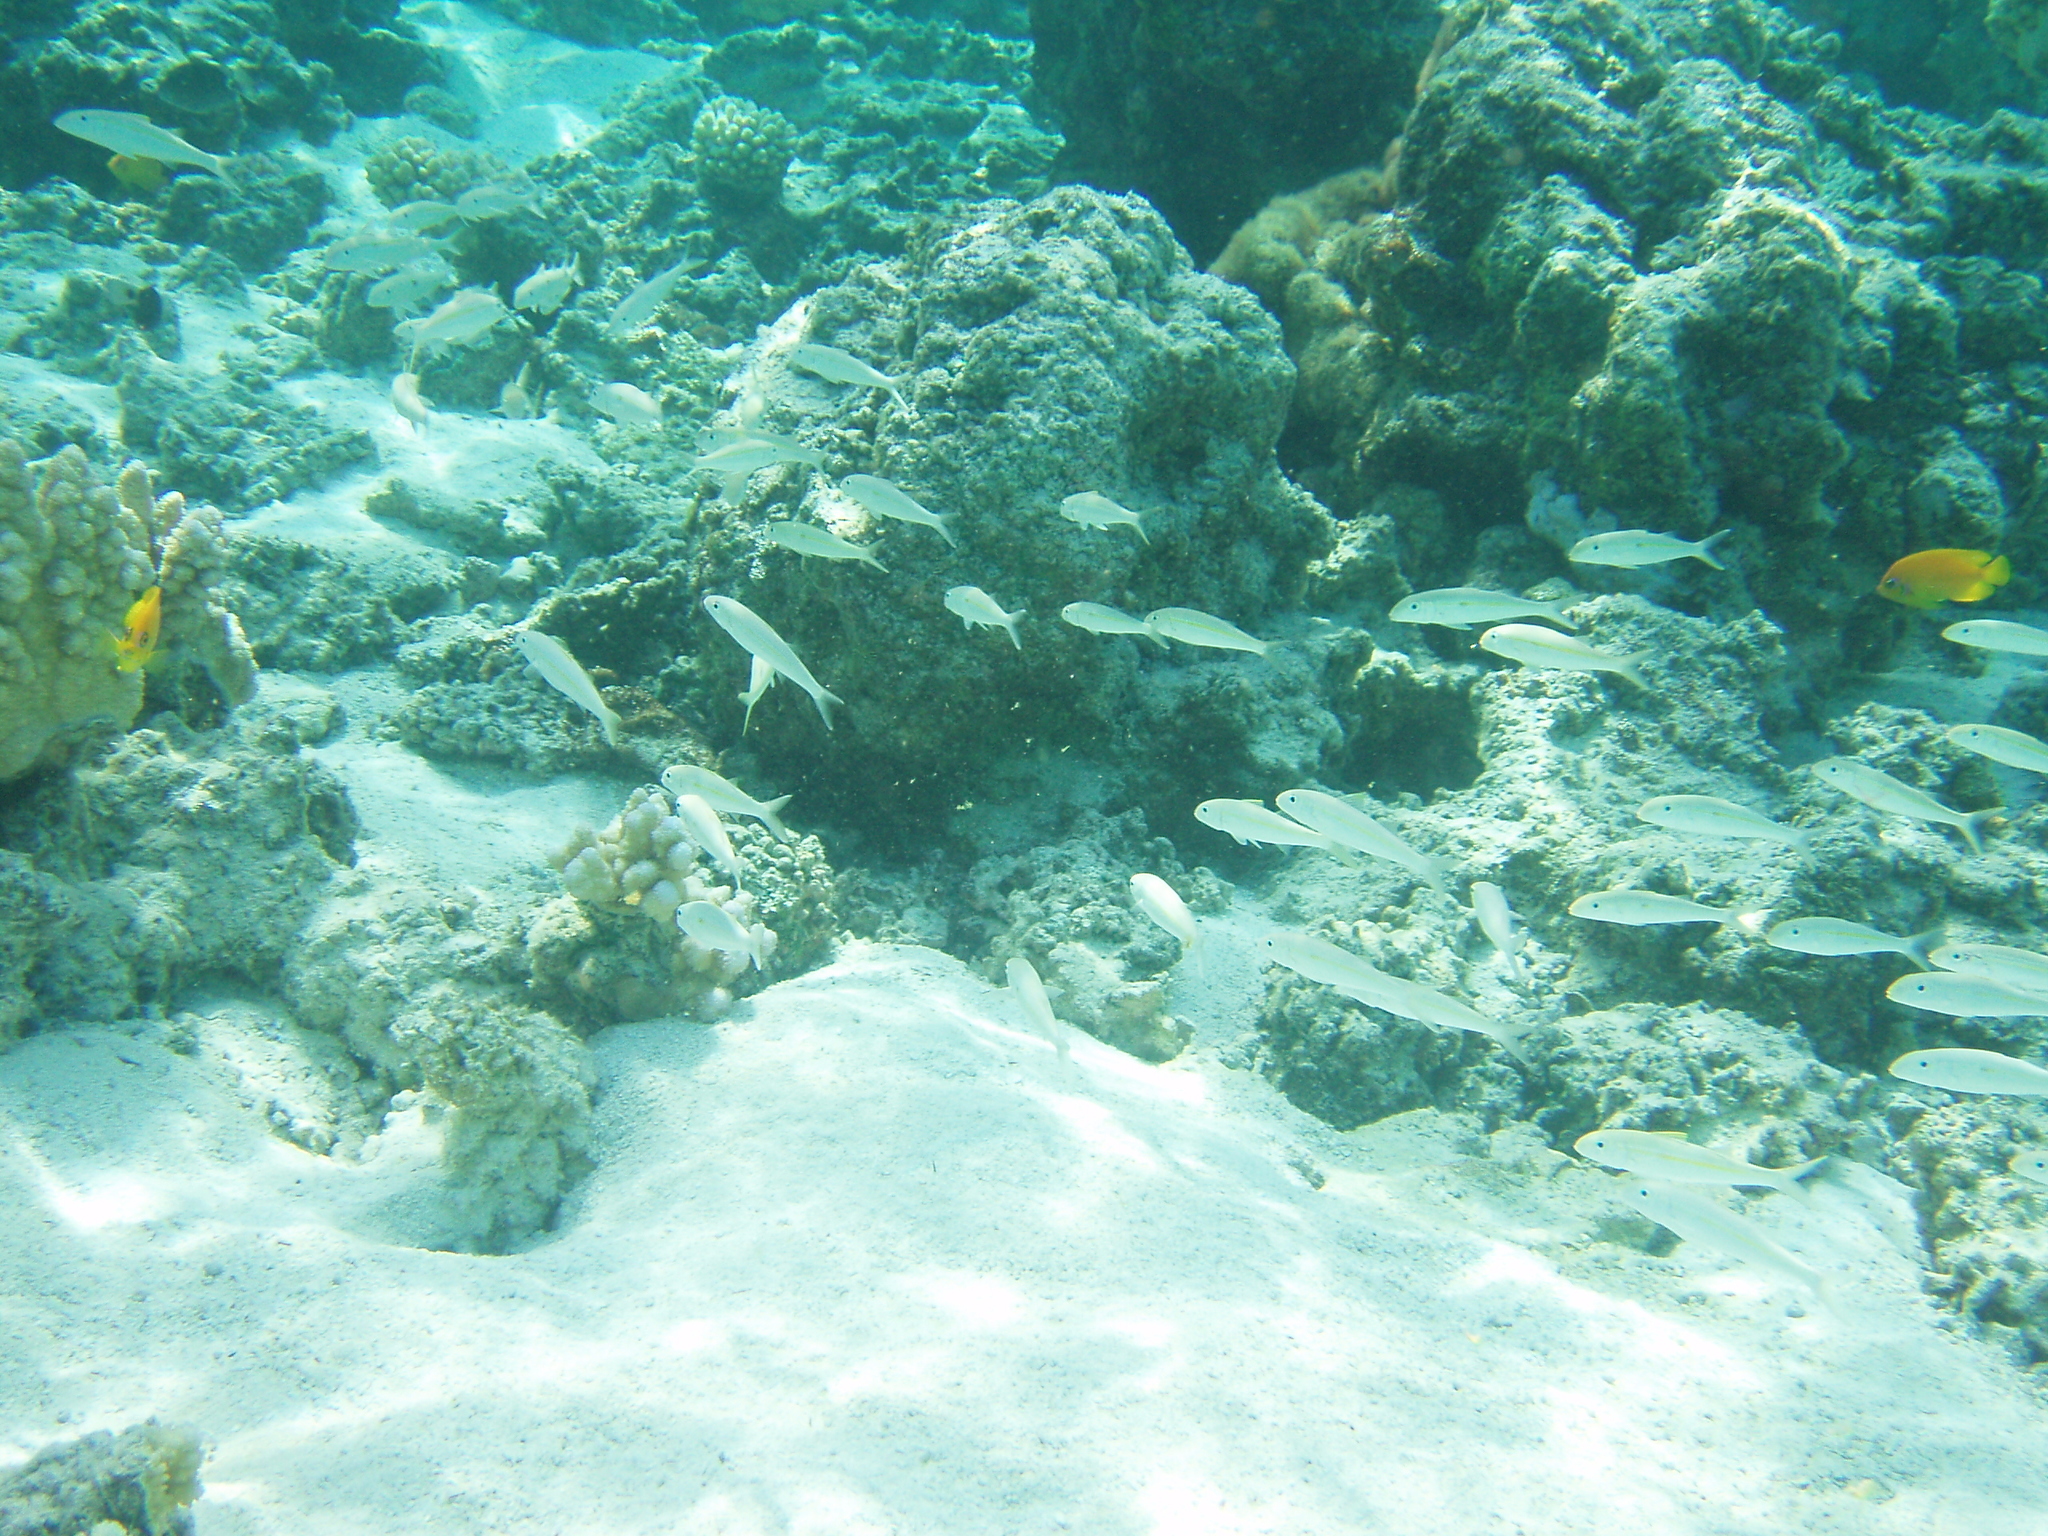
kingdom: Animalia
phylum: Chordata
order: Perciformes
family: Mullidae
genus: Mulloidichthys
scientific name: Mulloidichthys flavolineatus
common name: Yellowstripe goatfish
